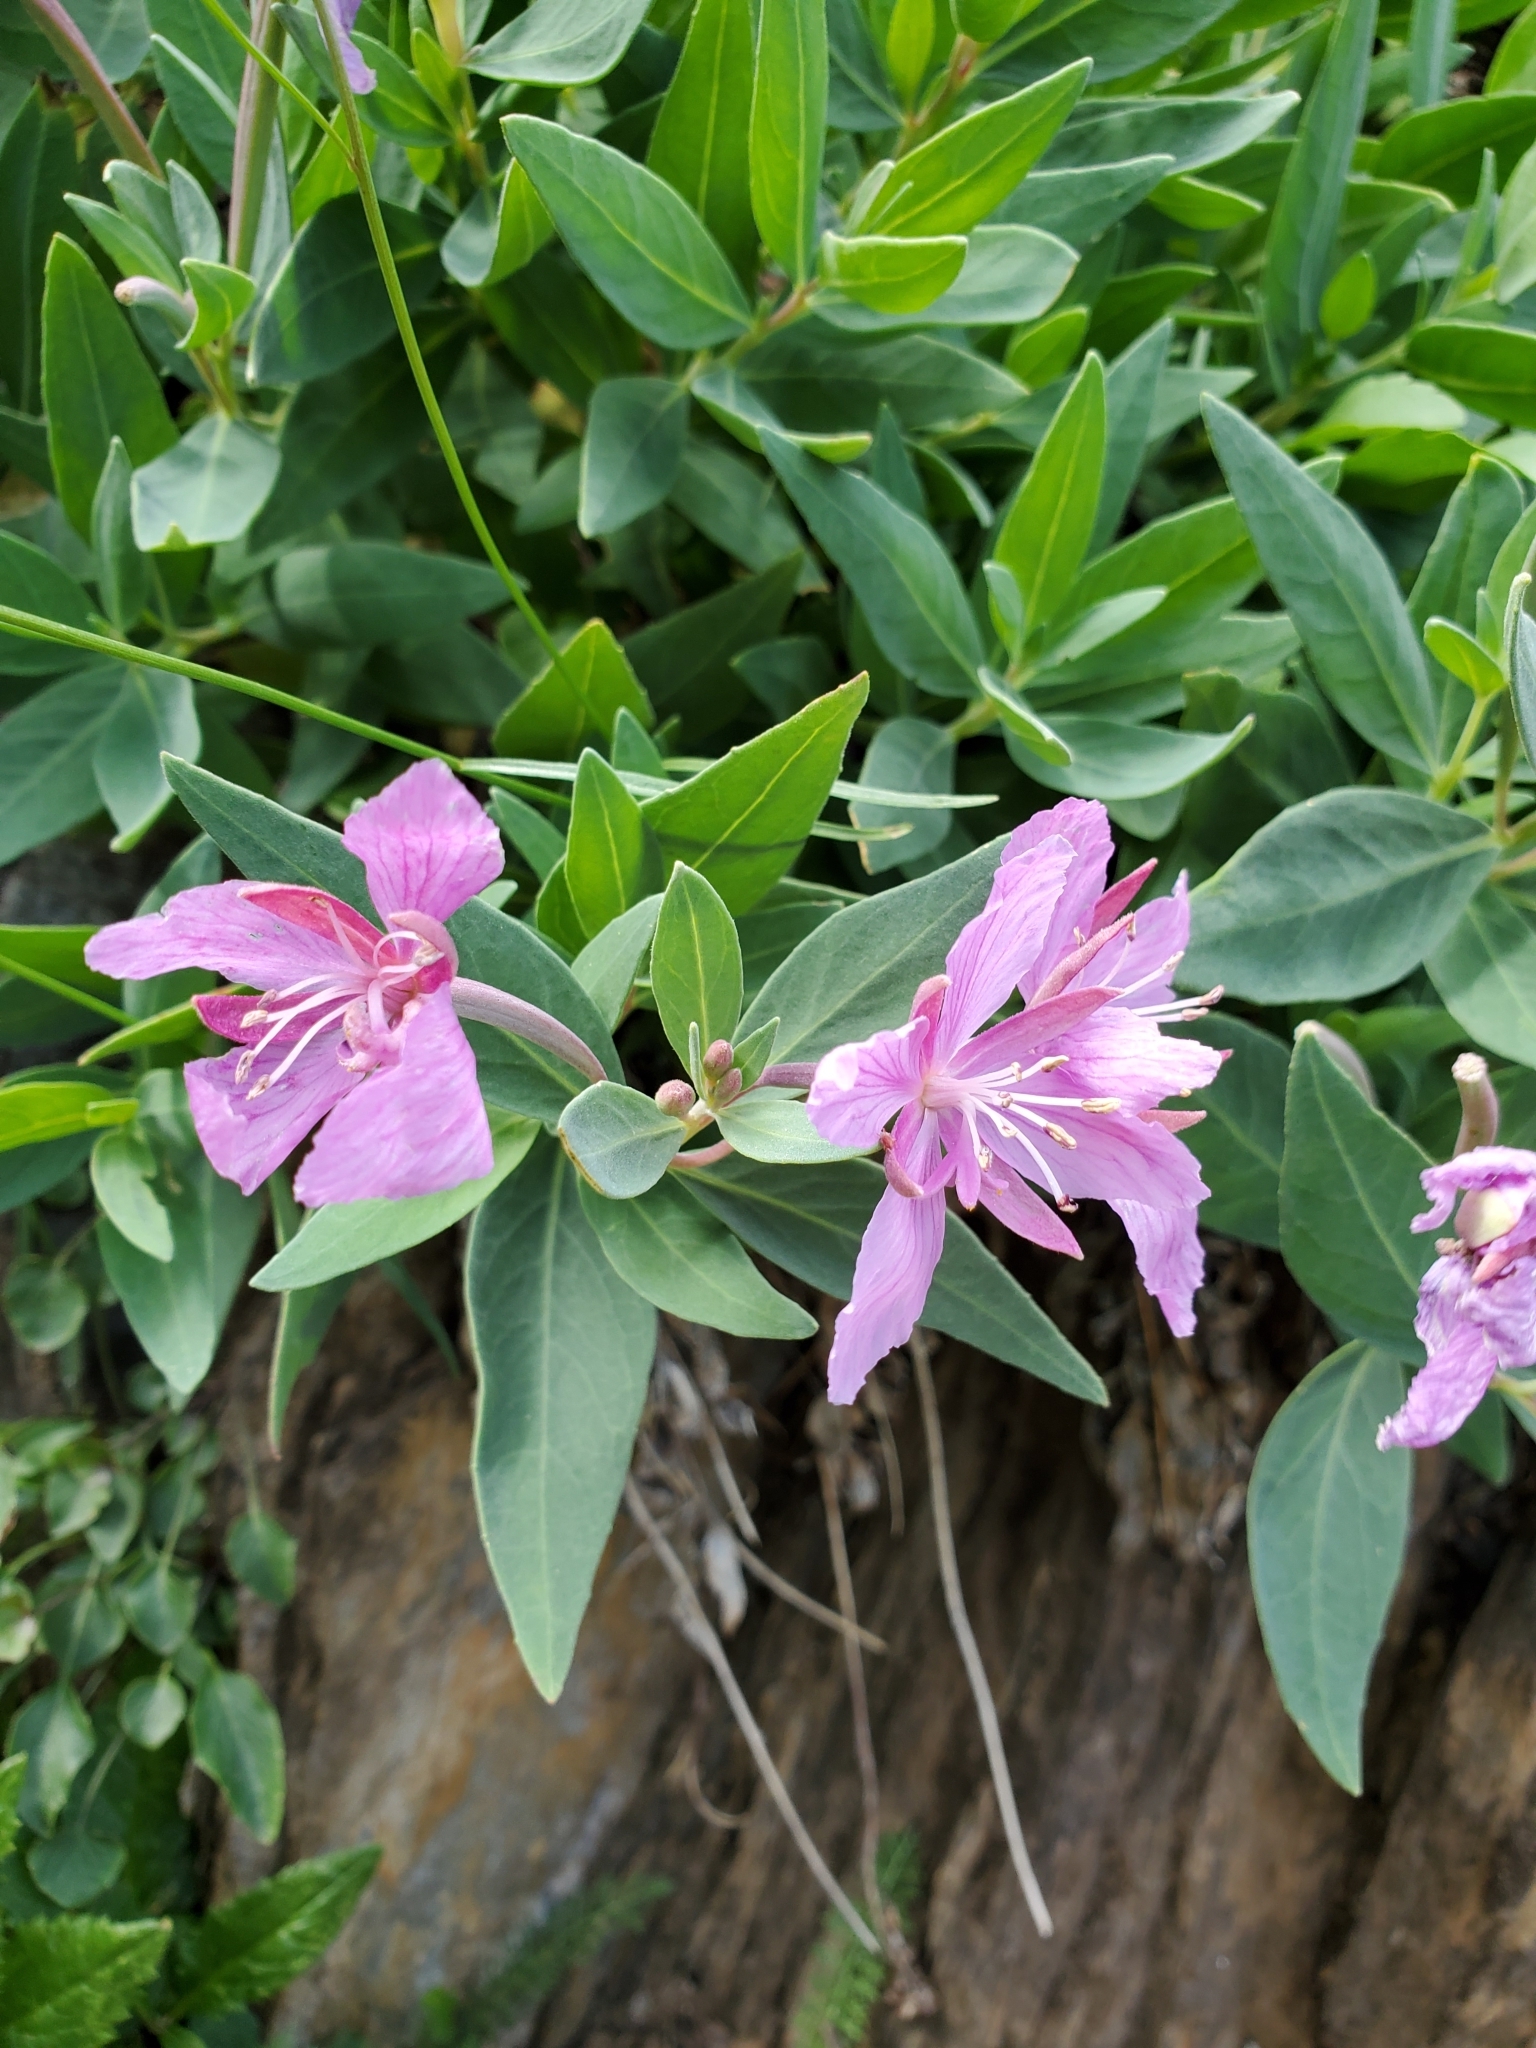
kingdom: Plantae
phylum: Tracheophyta
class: Magnoliopsida
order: Myrtales
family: Onagraceae
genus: Chamaenerion
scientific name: Chamaenerion latifolium
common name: Dwarf fireweed
